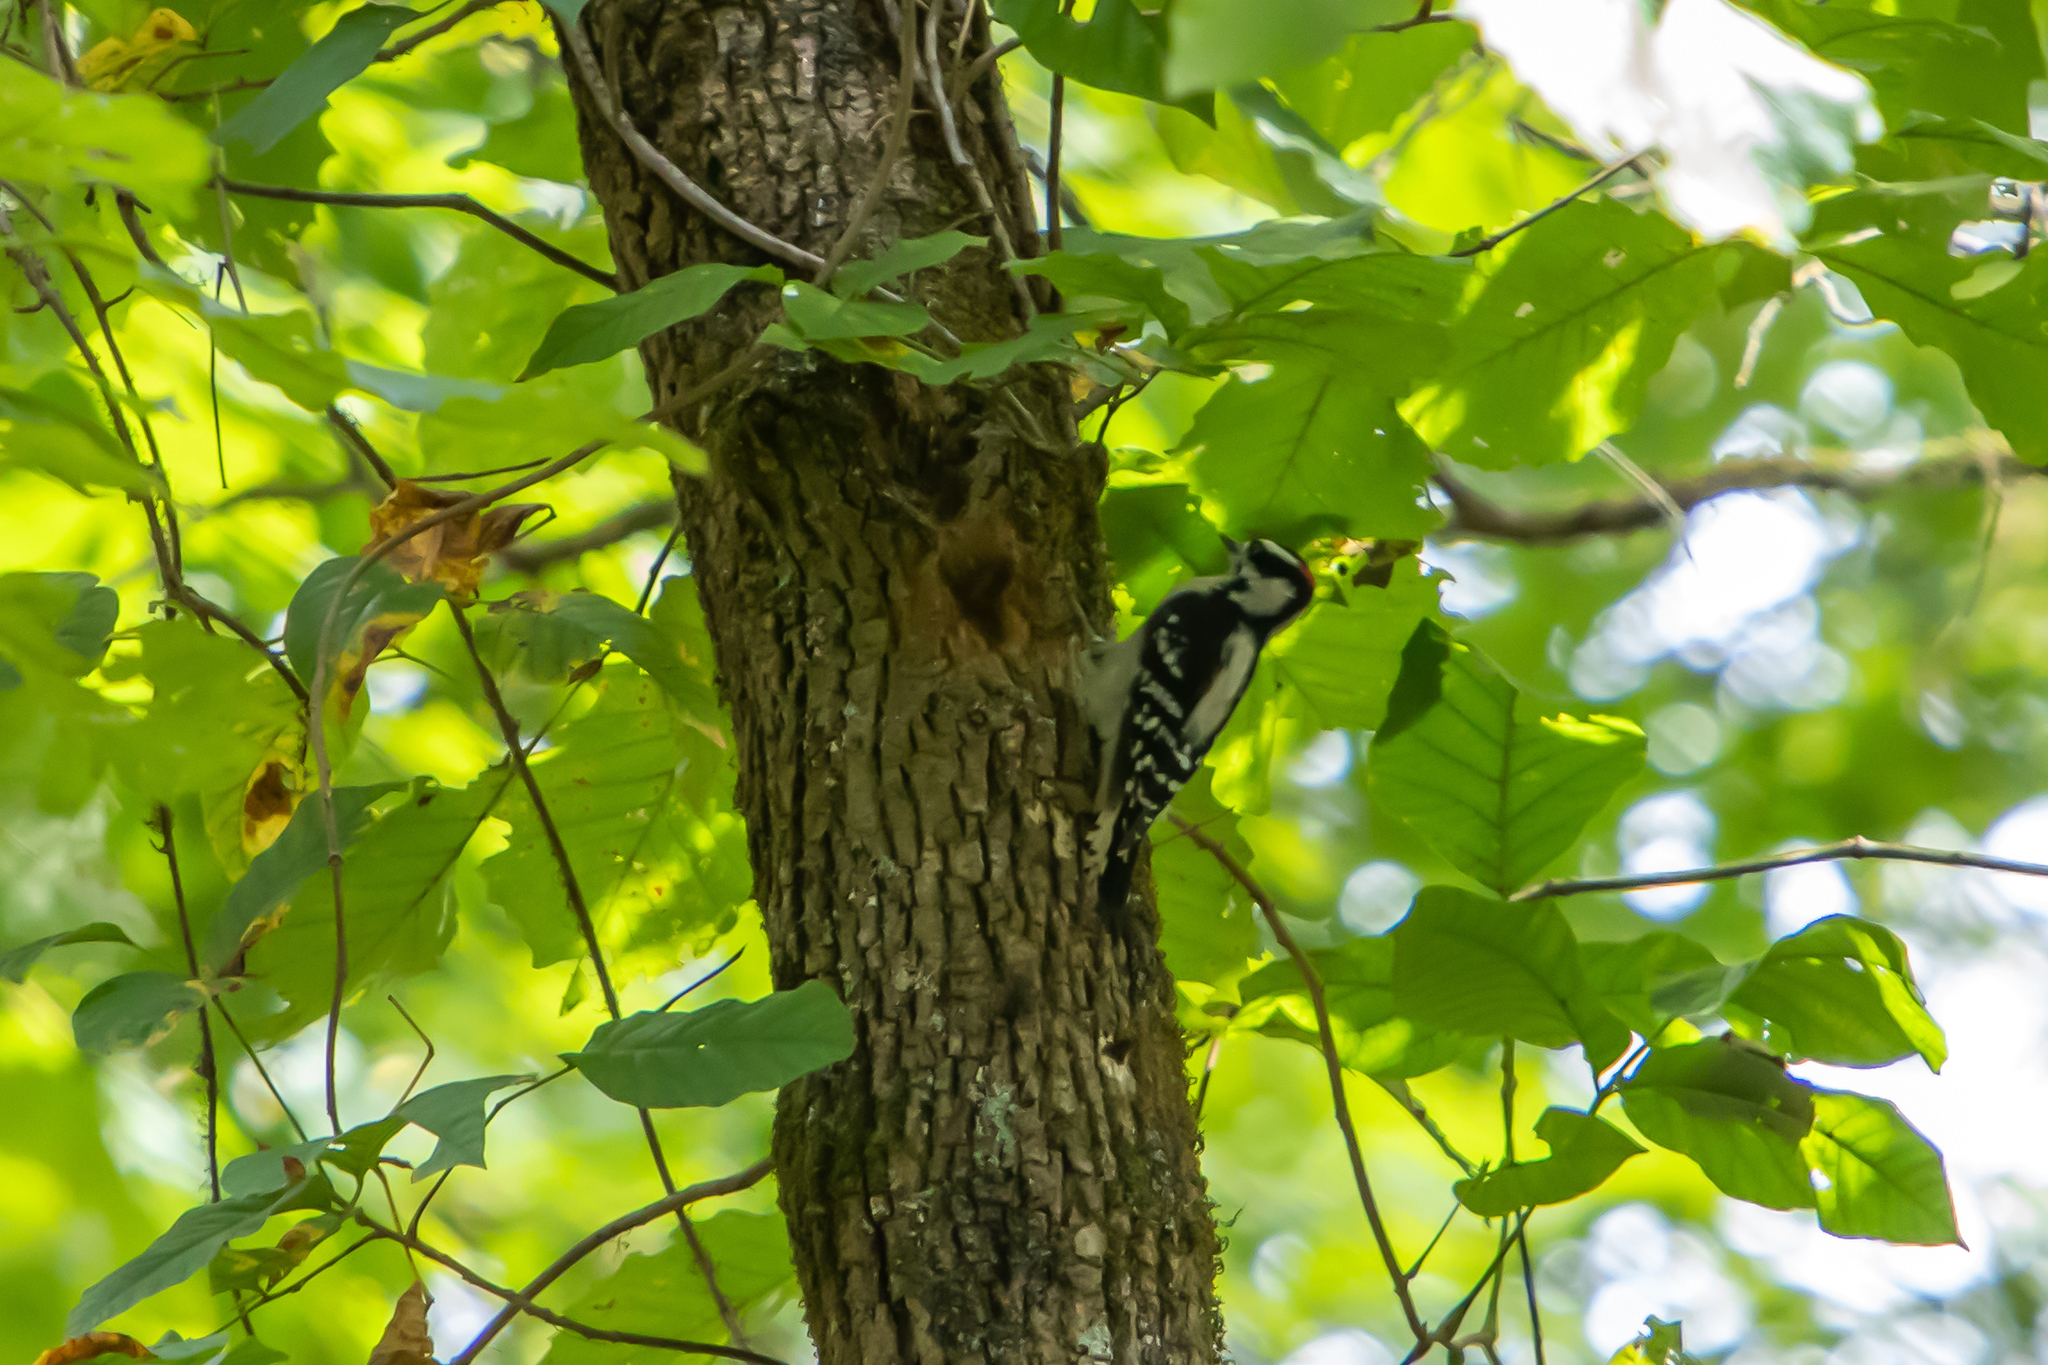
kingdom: Animalia
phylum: Chordata
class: Aves
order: Piciformes
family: Picidae
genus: Dryobates
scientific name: Dryobates pubescens
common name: Downy woodpecker
